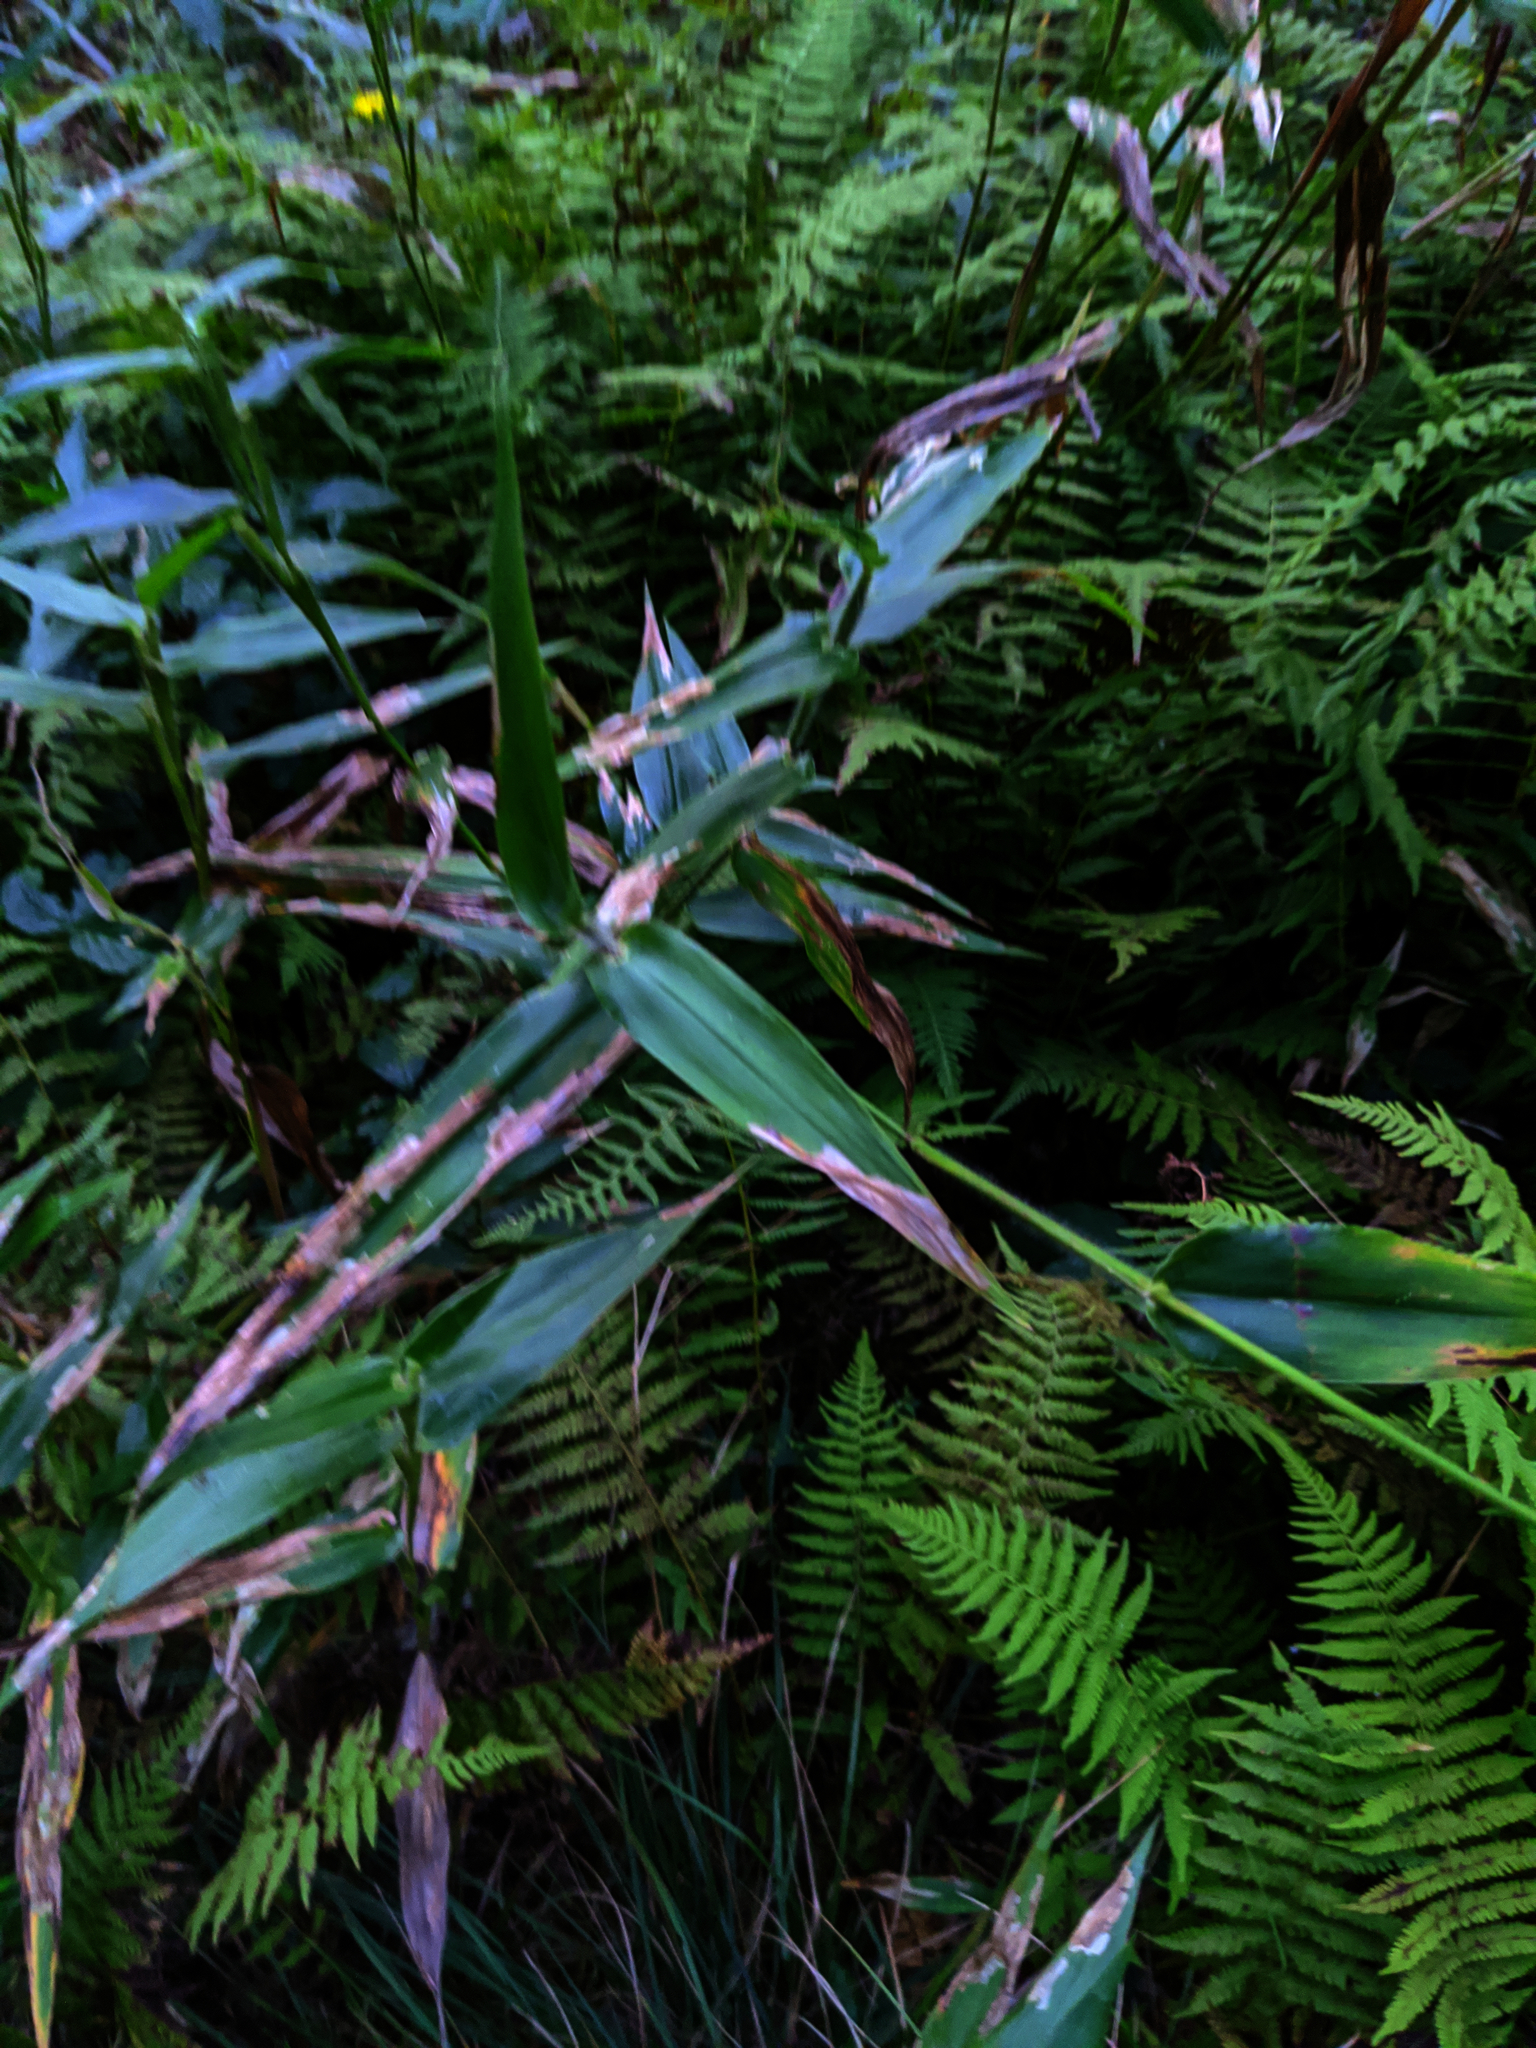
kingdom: Plantae
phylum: Tracheophyta
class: Liliopsida
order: Poales
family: Poaceae
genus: Dichanthelium
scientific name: Dichanthelium clandestinum
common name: Deer-tongue grass
